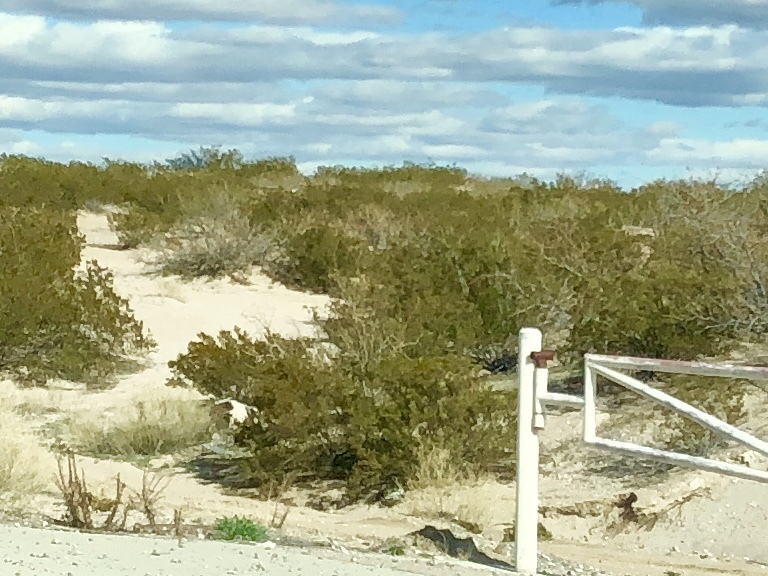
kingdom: Plantae
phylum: Tracheophyta
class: Magnoliopsida
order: Zygophyllales
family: Zygophyllaceae
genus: Larrea
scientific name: Larrea tridentata
